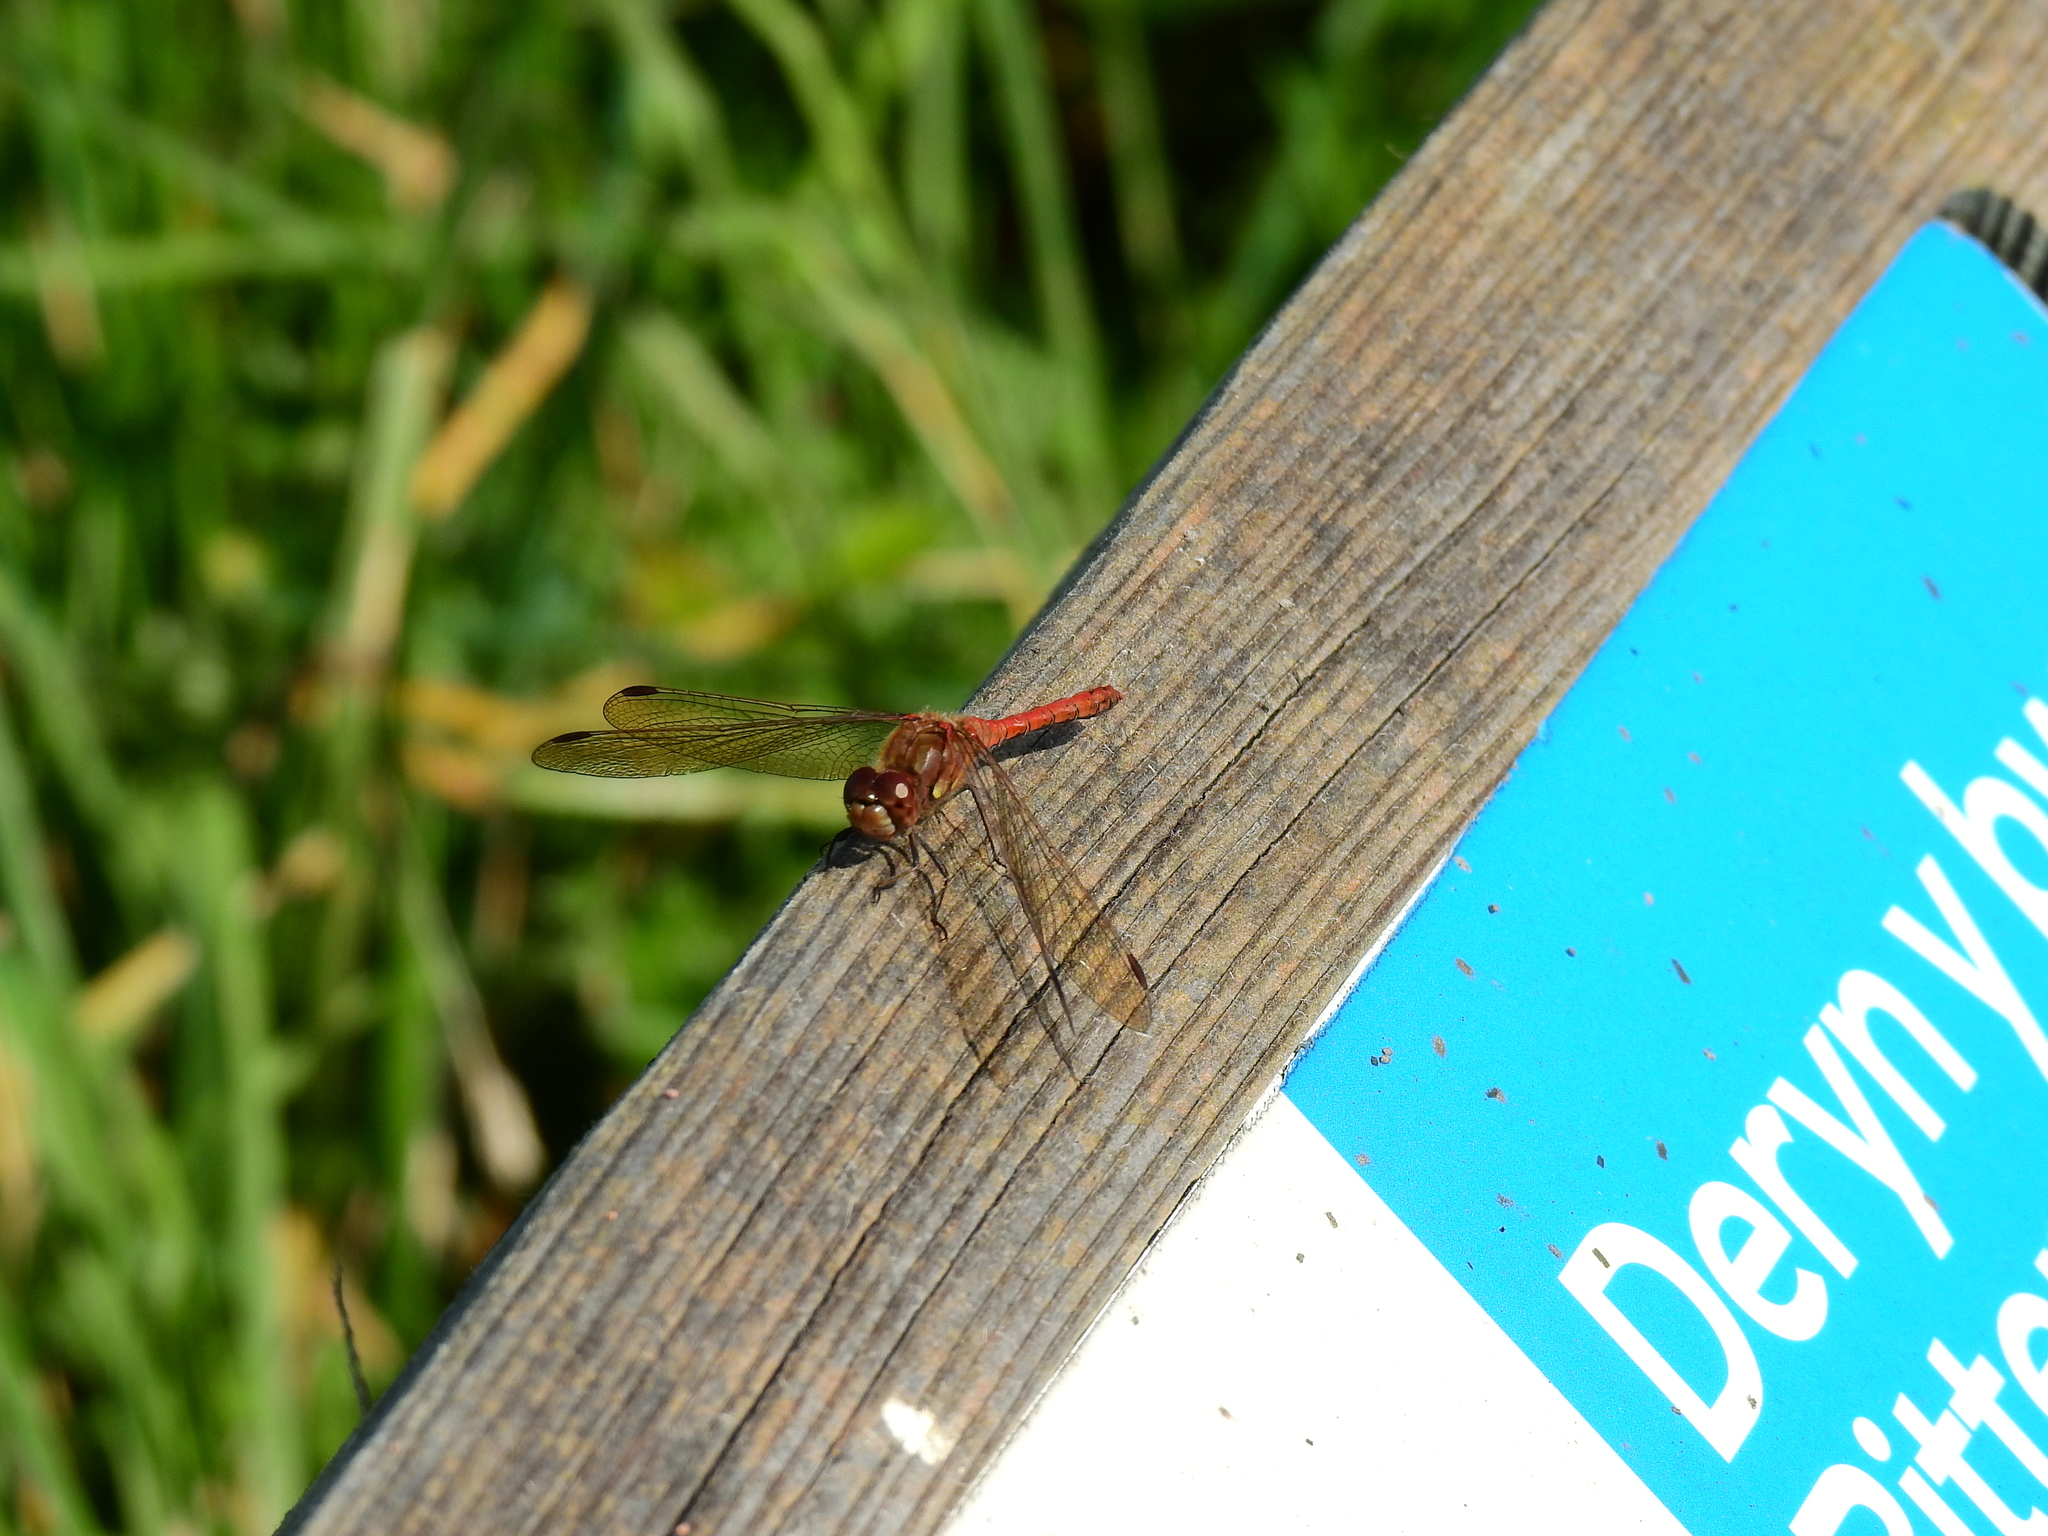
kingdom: Animalia
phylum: Arthropoda
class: Insecta
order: Odonata
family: Libellulidae
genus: Sympetrum
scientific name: Sympetrum striolatum
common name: Common darter
